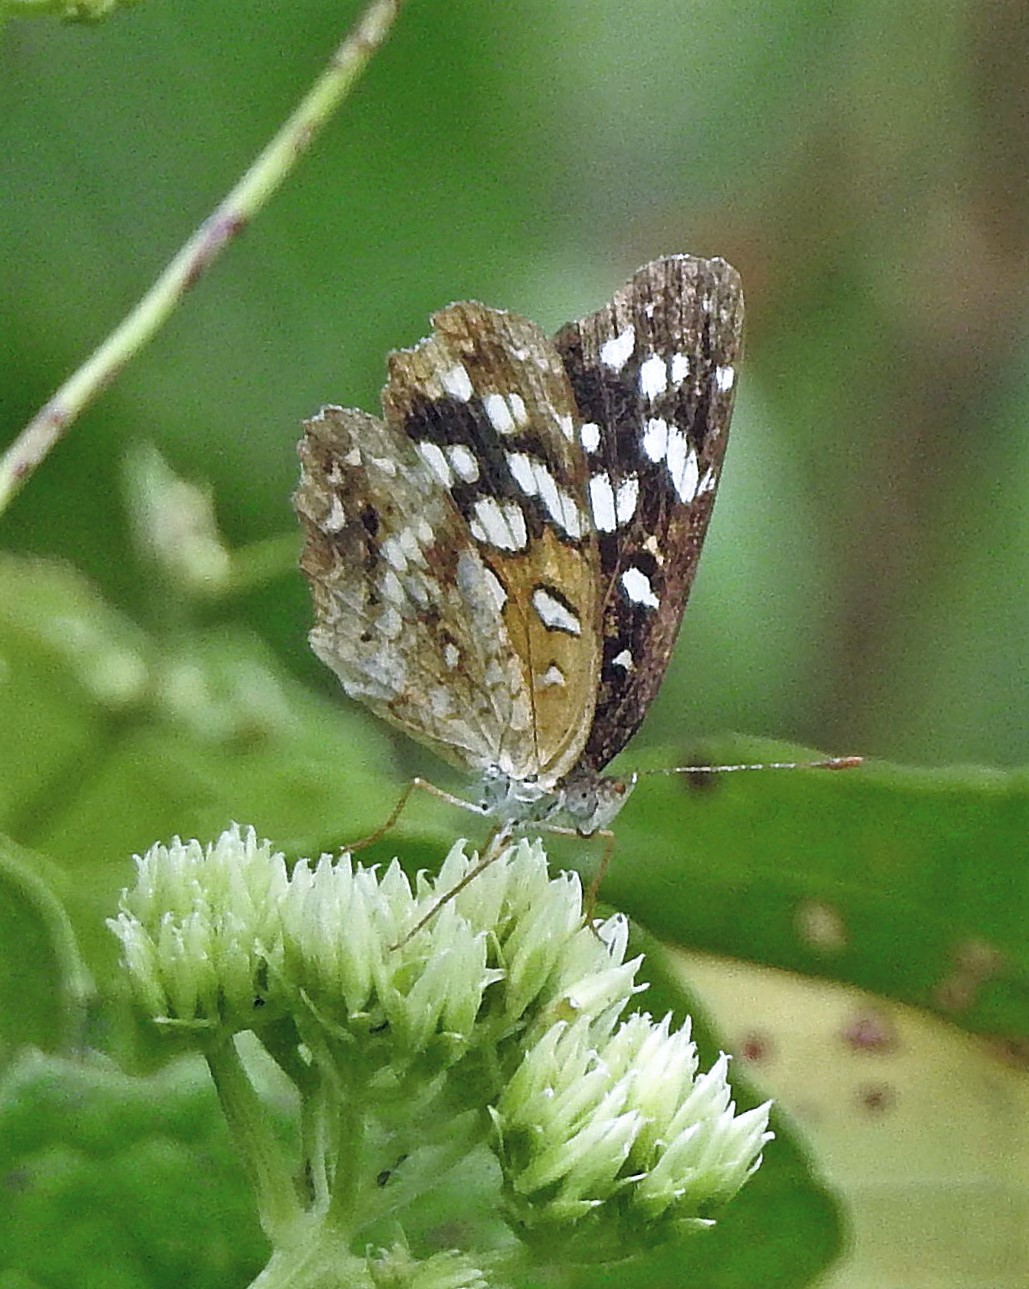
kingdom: Animalia
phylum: Arthropoda
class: Insecta
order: Lepidoptera
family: Nymphalidae
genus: Anthanassa
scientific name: Anthanassa hermas
